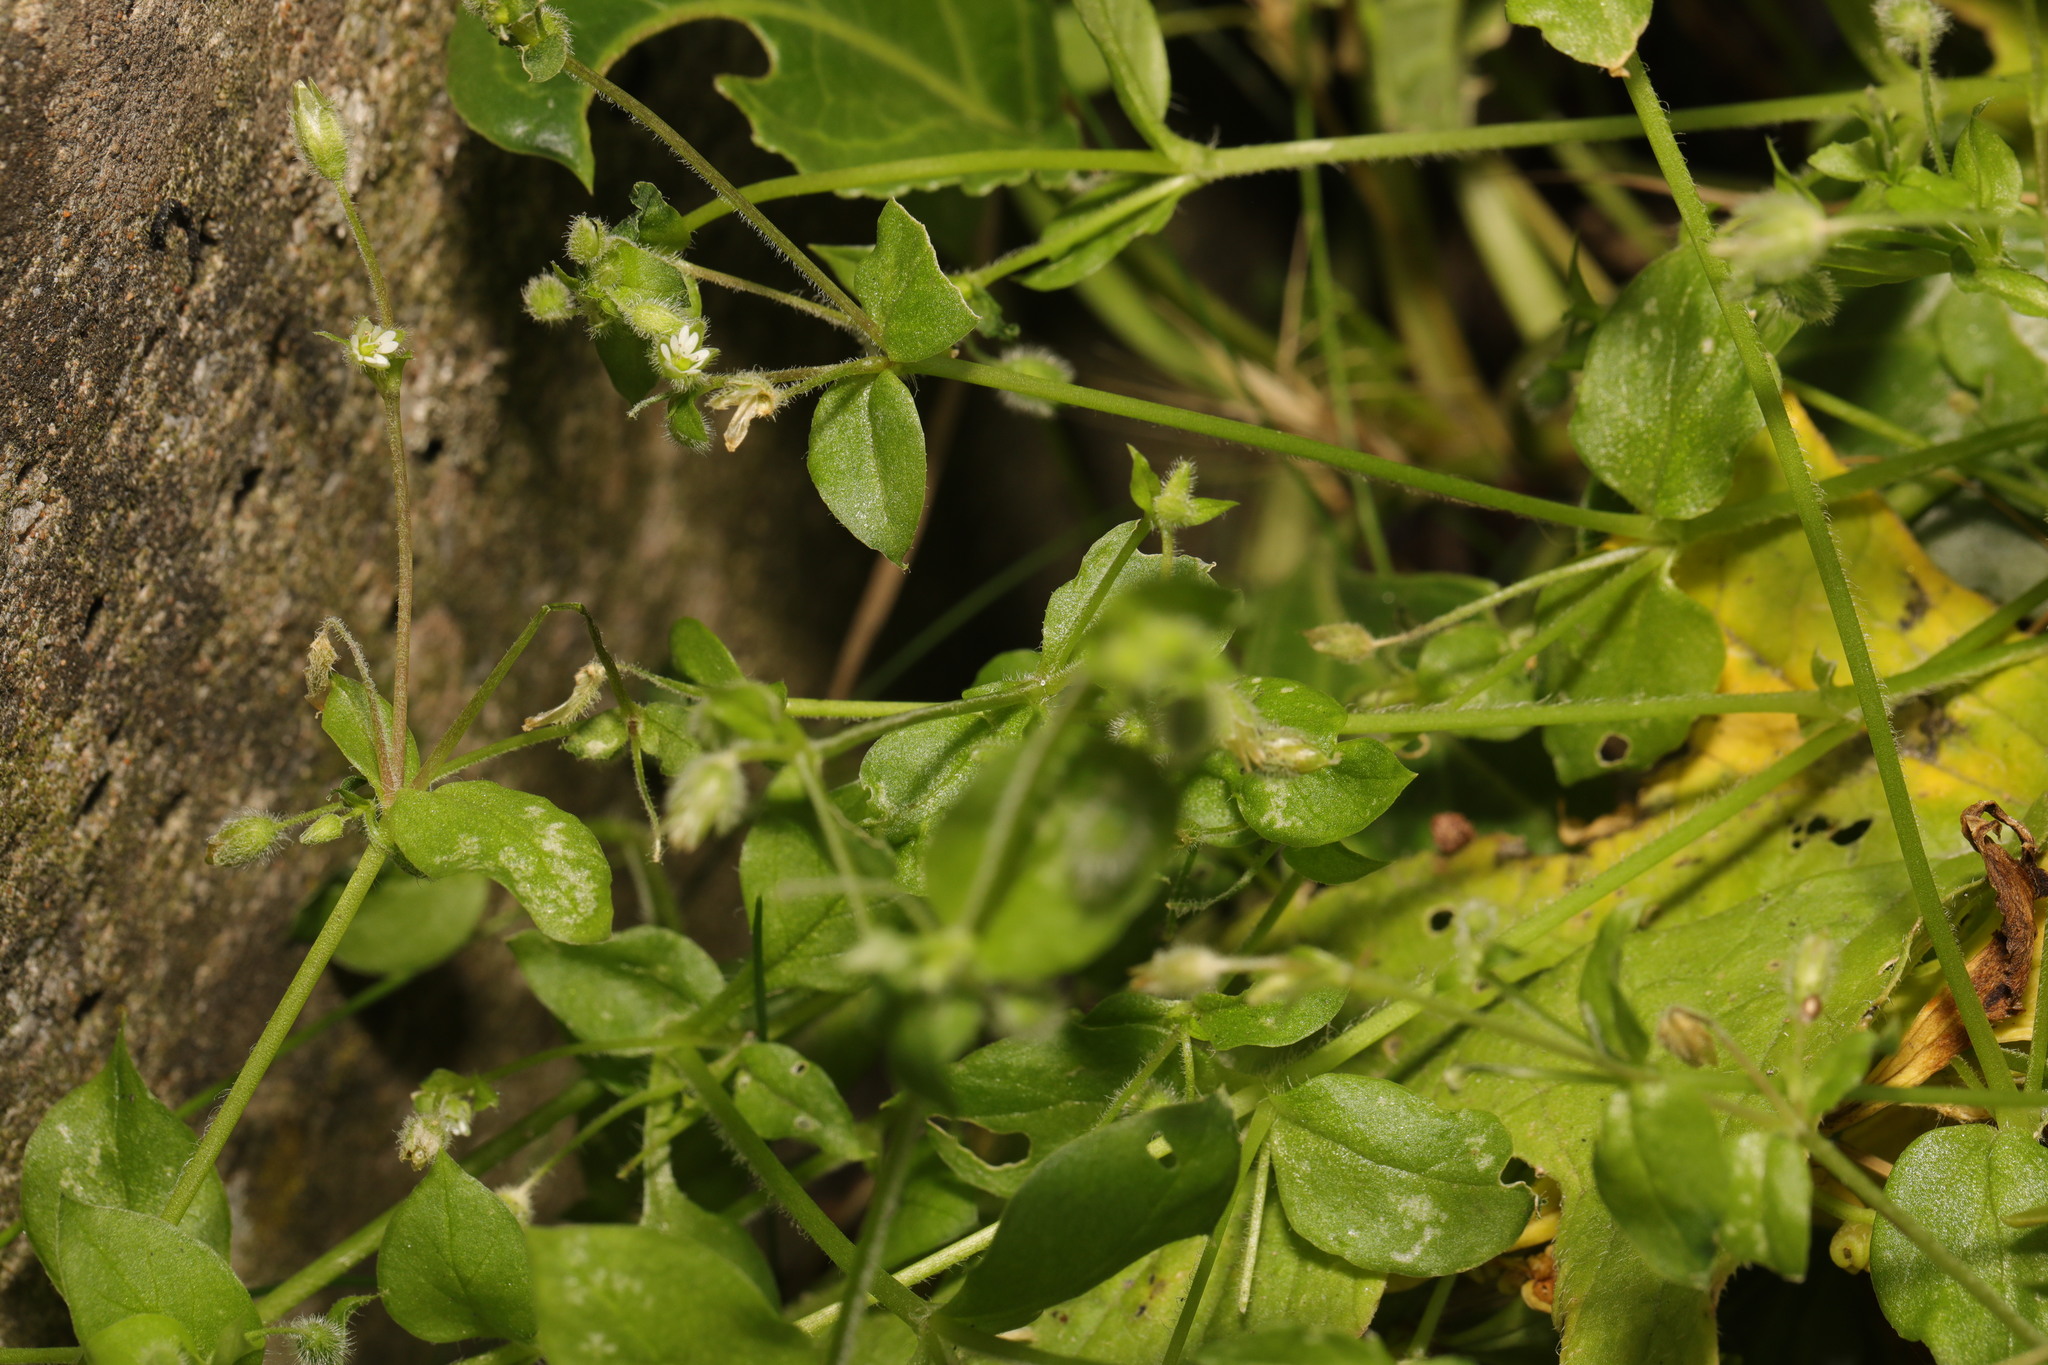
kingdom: Plantae
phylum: Tracheophyta
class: Magnoliopsida
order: Caryophyllales
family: Caryophyllaceae
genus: Stellaria
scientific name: Stellaria media
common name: Common chickweed
